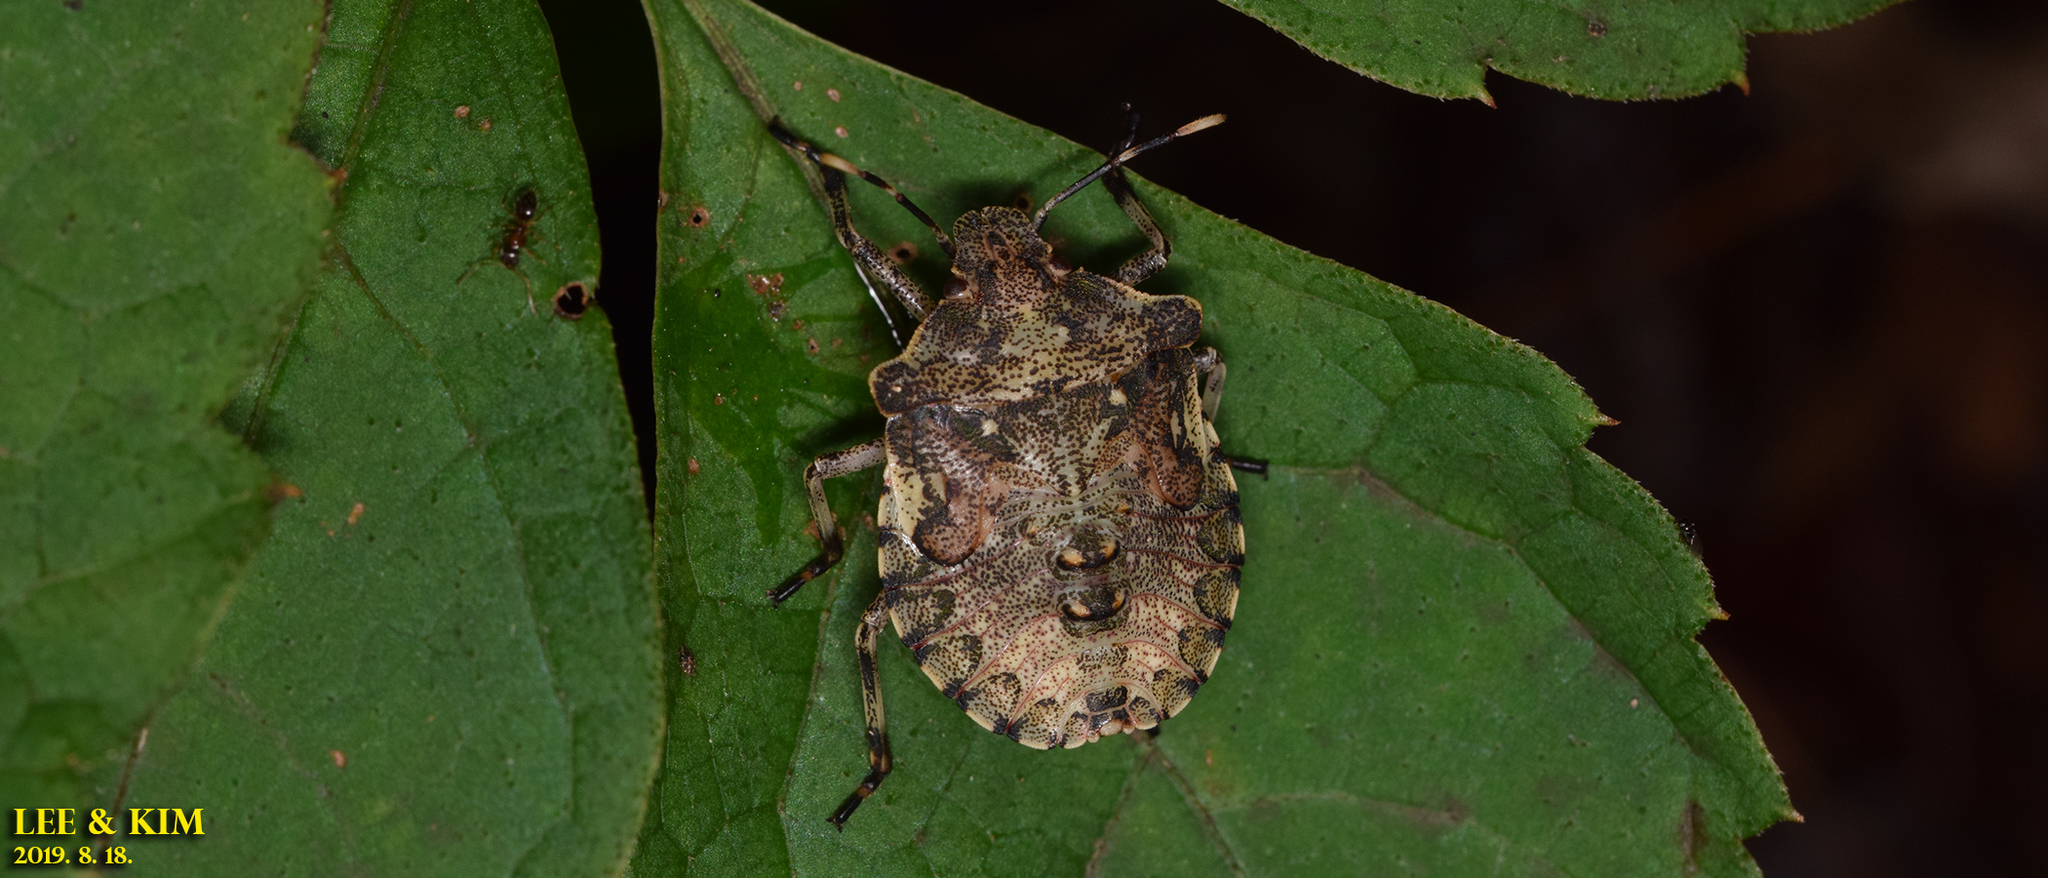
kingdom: Animalia
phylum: Arthropoda
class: Insecta
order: Hemiptera
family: Pentatomidae
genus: Placosternum
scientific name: Placosternum
